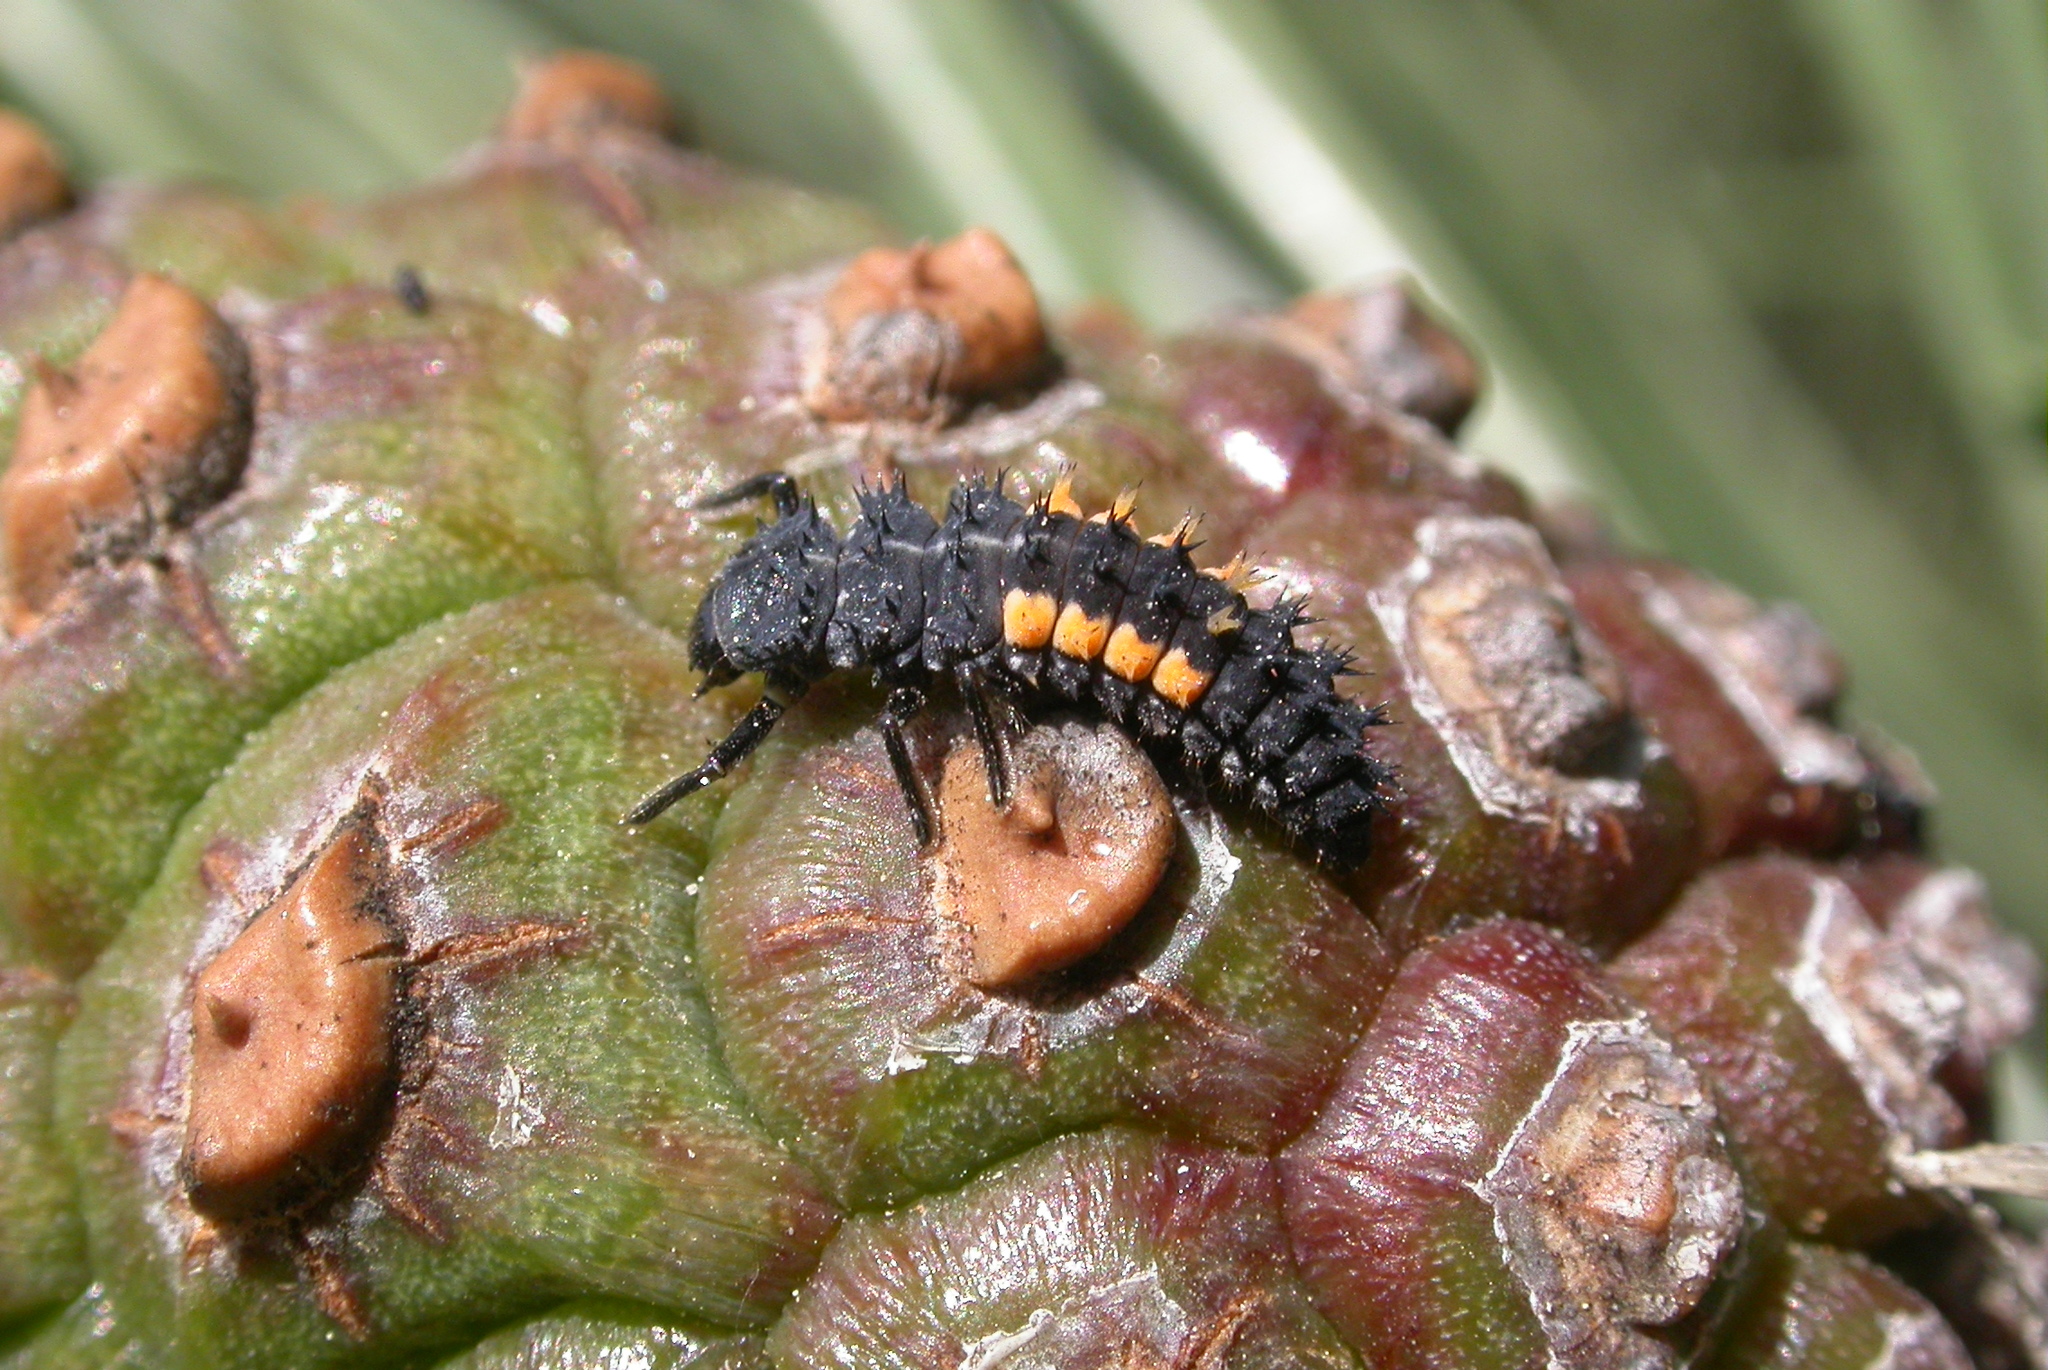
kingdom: Animalia
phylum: Arthropoda
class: Insecta
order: Coleoptera
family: Coccinellidae
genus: Harmonia
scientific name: Harmonia quadripunctata
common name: Cream-streaked ladybird
